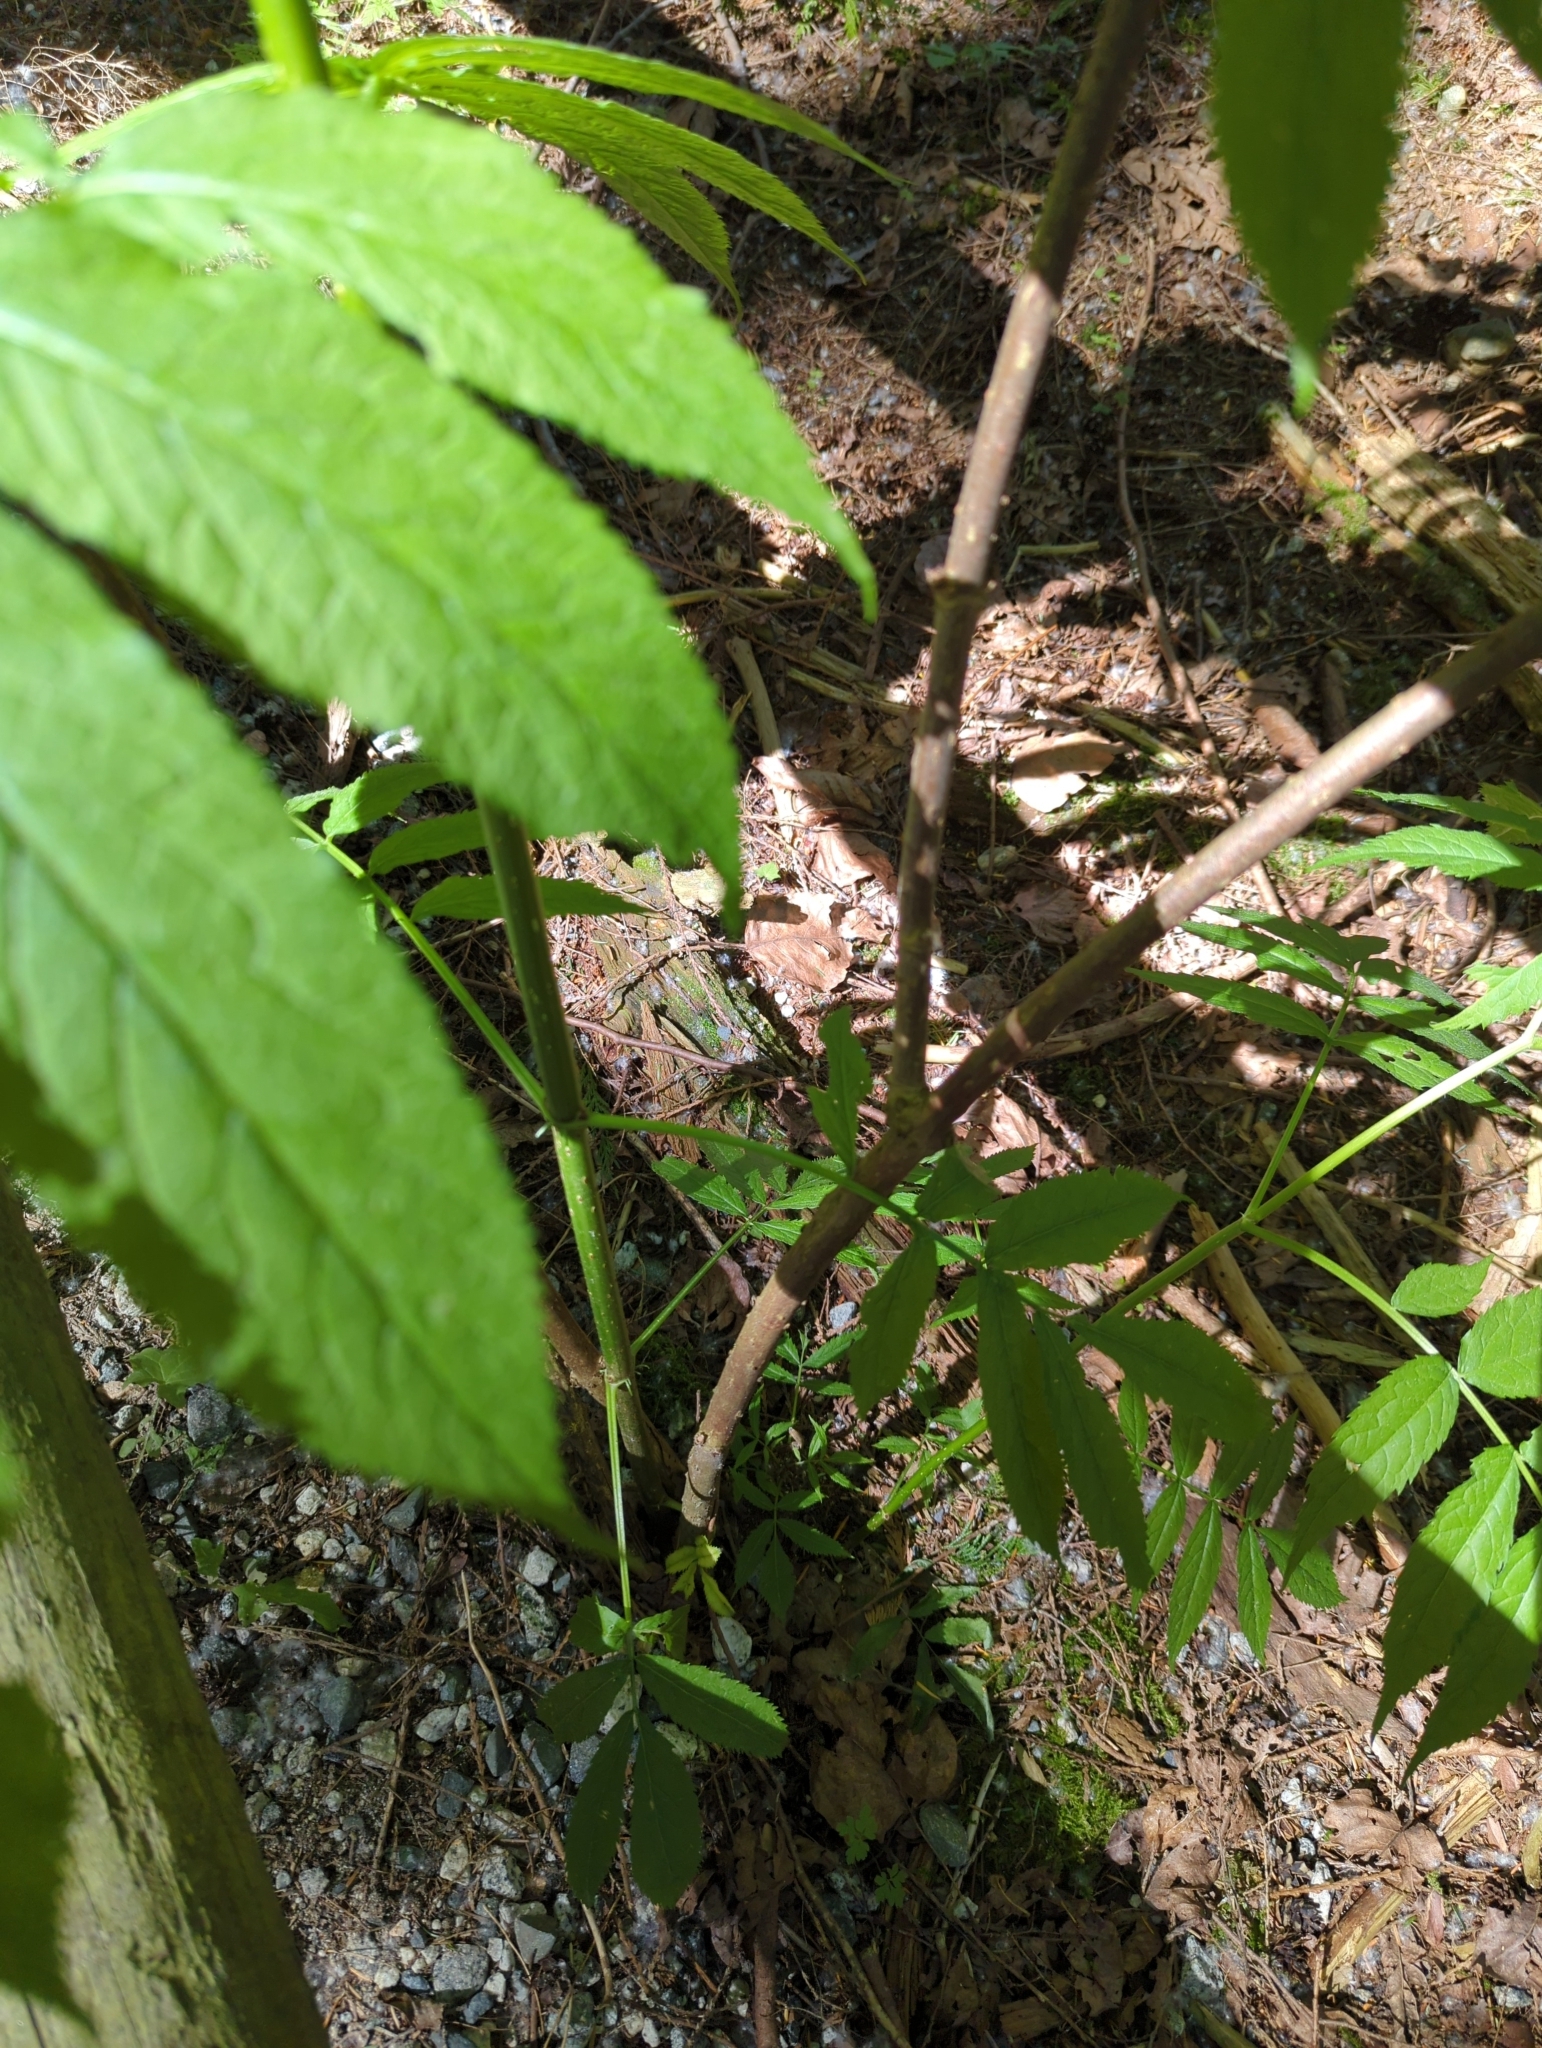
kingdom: Plantae
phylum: Tracheophyta
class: Magnoliopsida
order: Dipsacales
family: Viburnaceae
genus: Sambucus
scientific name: Sambucus racemosa
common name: Red-berried elder
